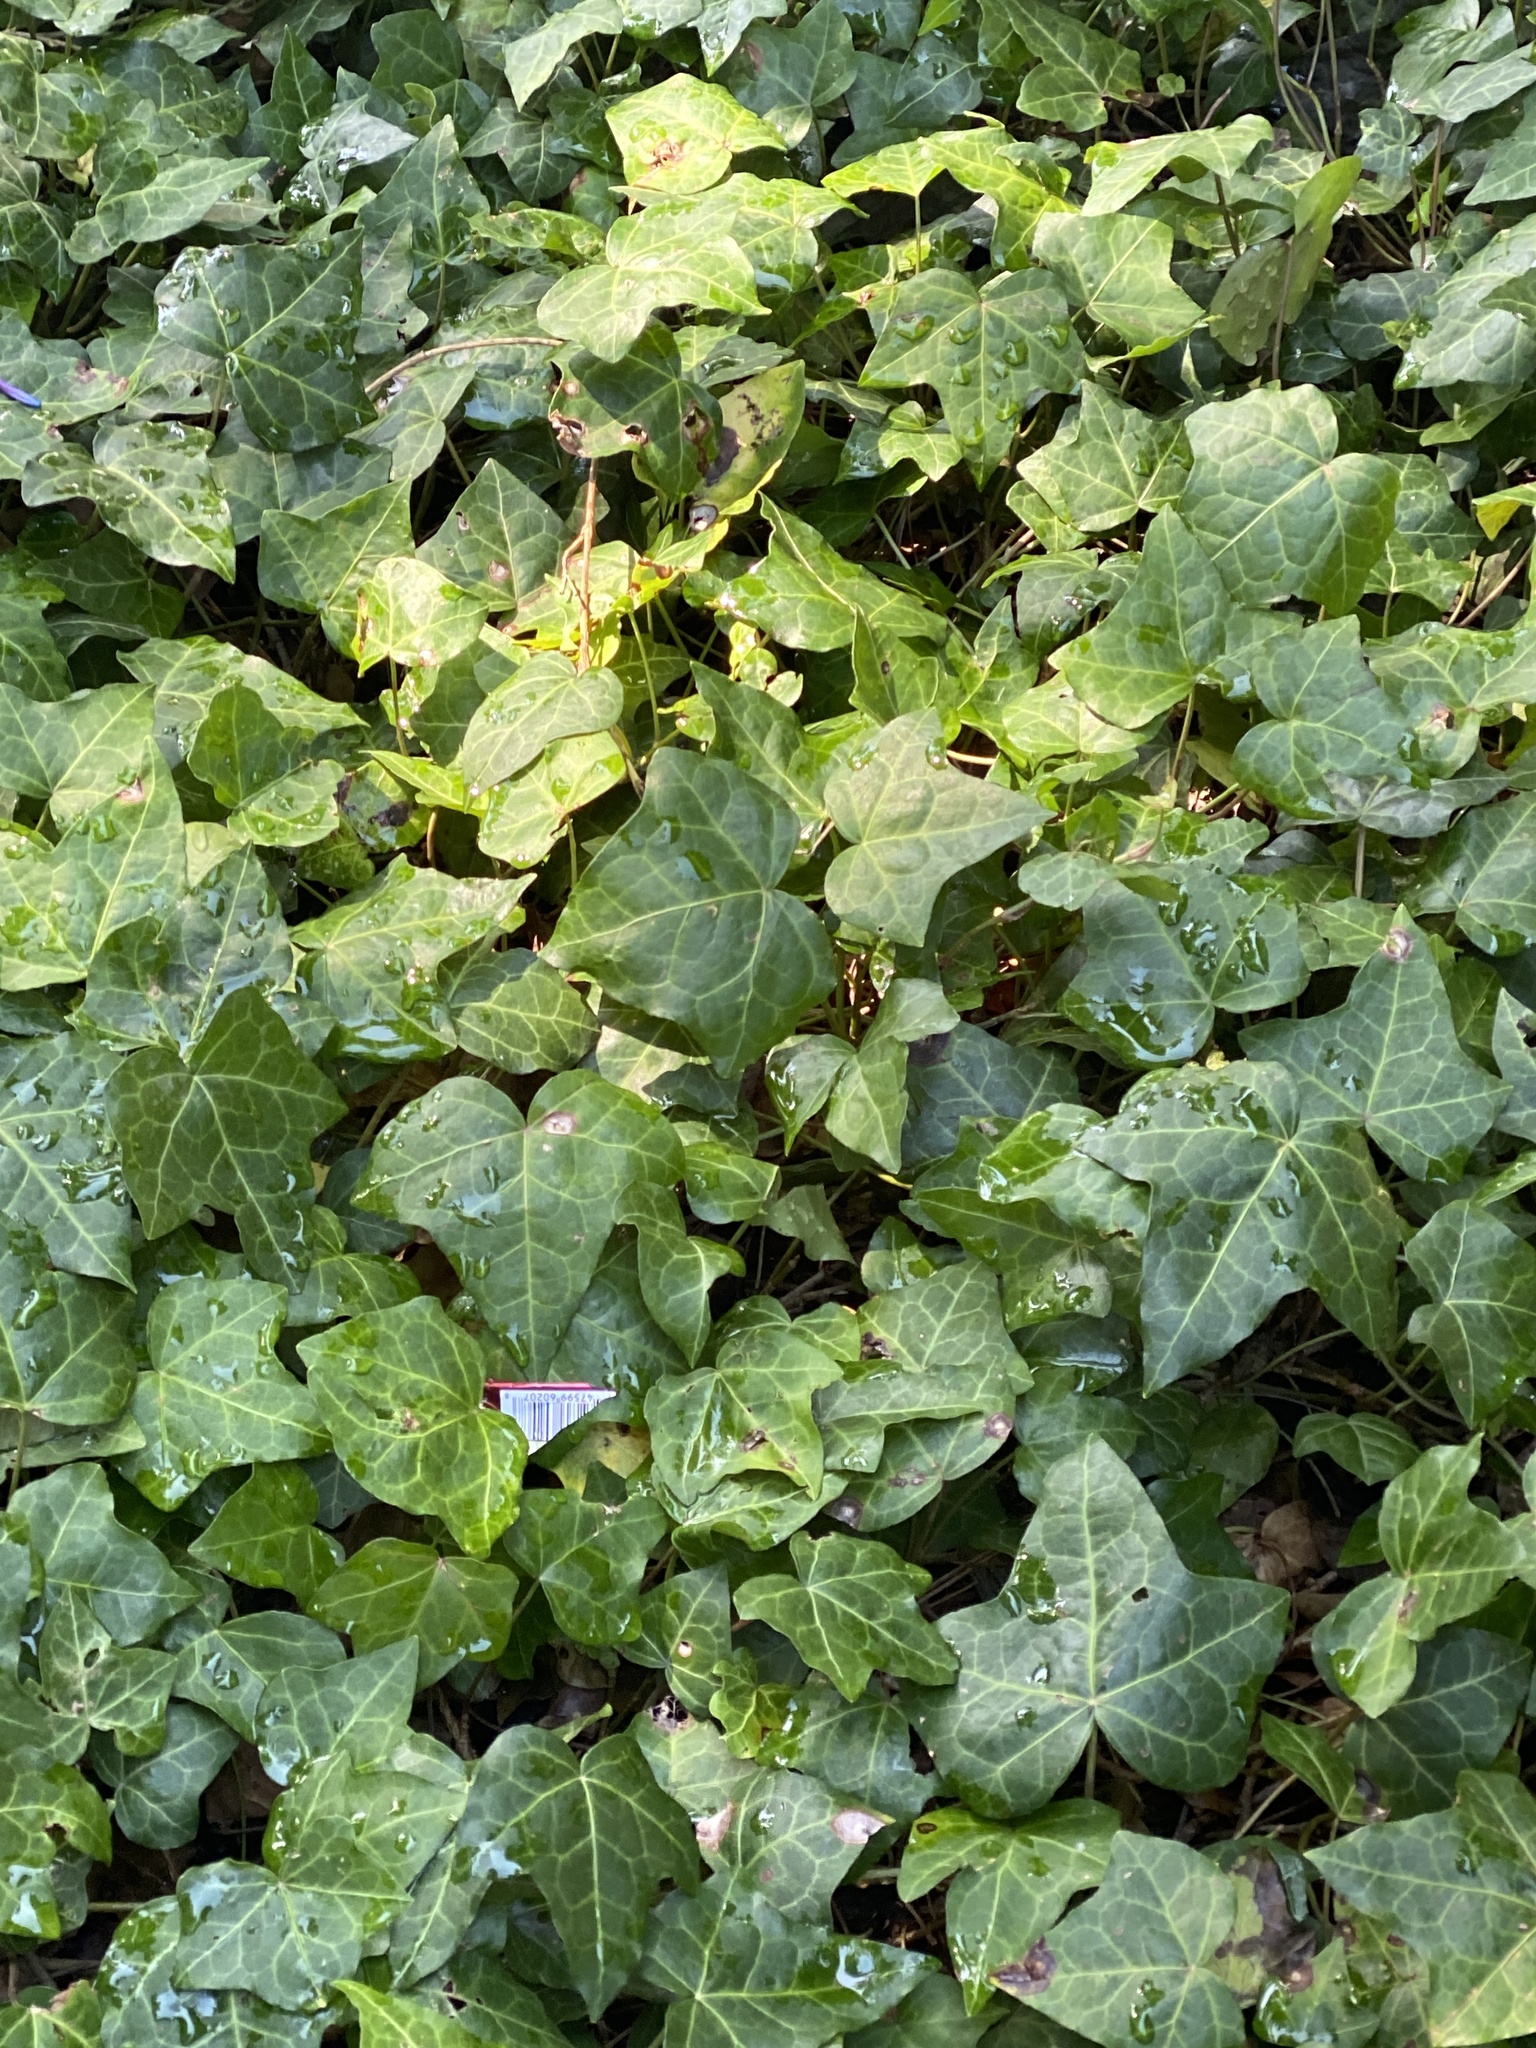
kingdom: Plantae
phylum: Tracheophyta
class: Magnoliopsida
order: Apiales
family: Araliaceae
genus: Hedera
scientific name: Hedera helix
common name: Ivy
